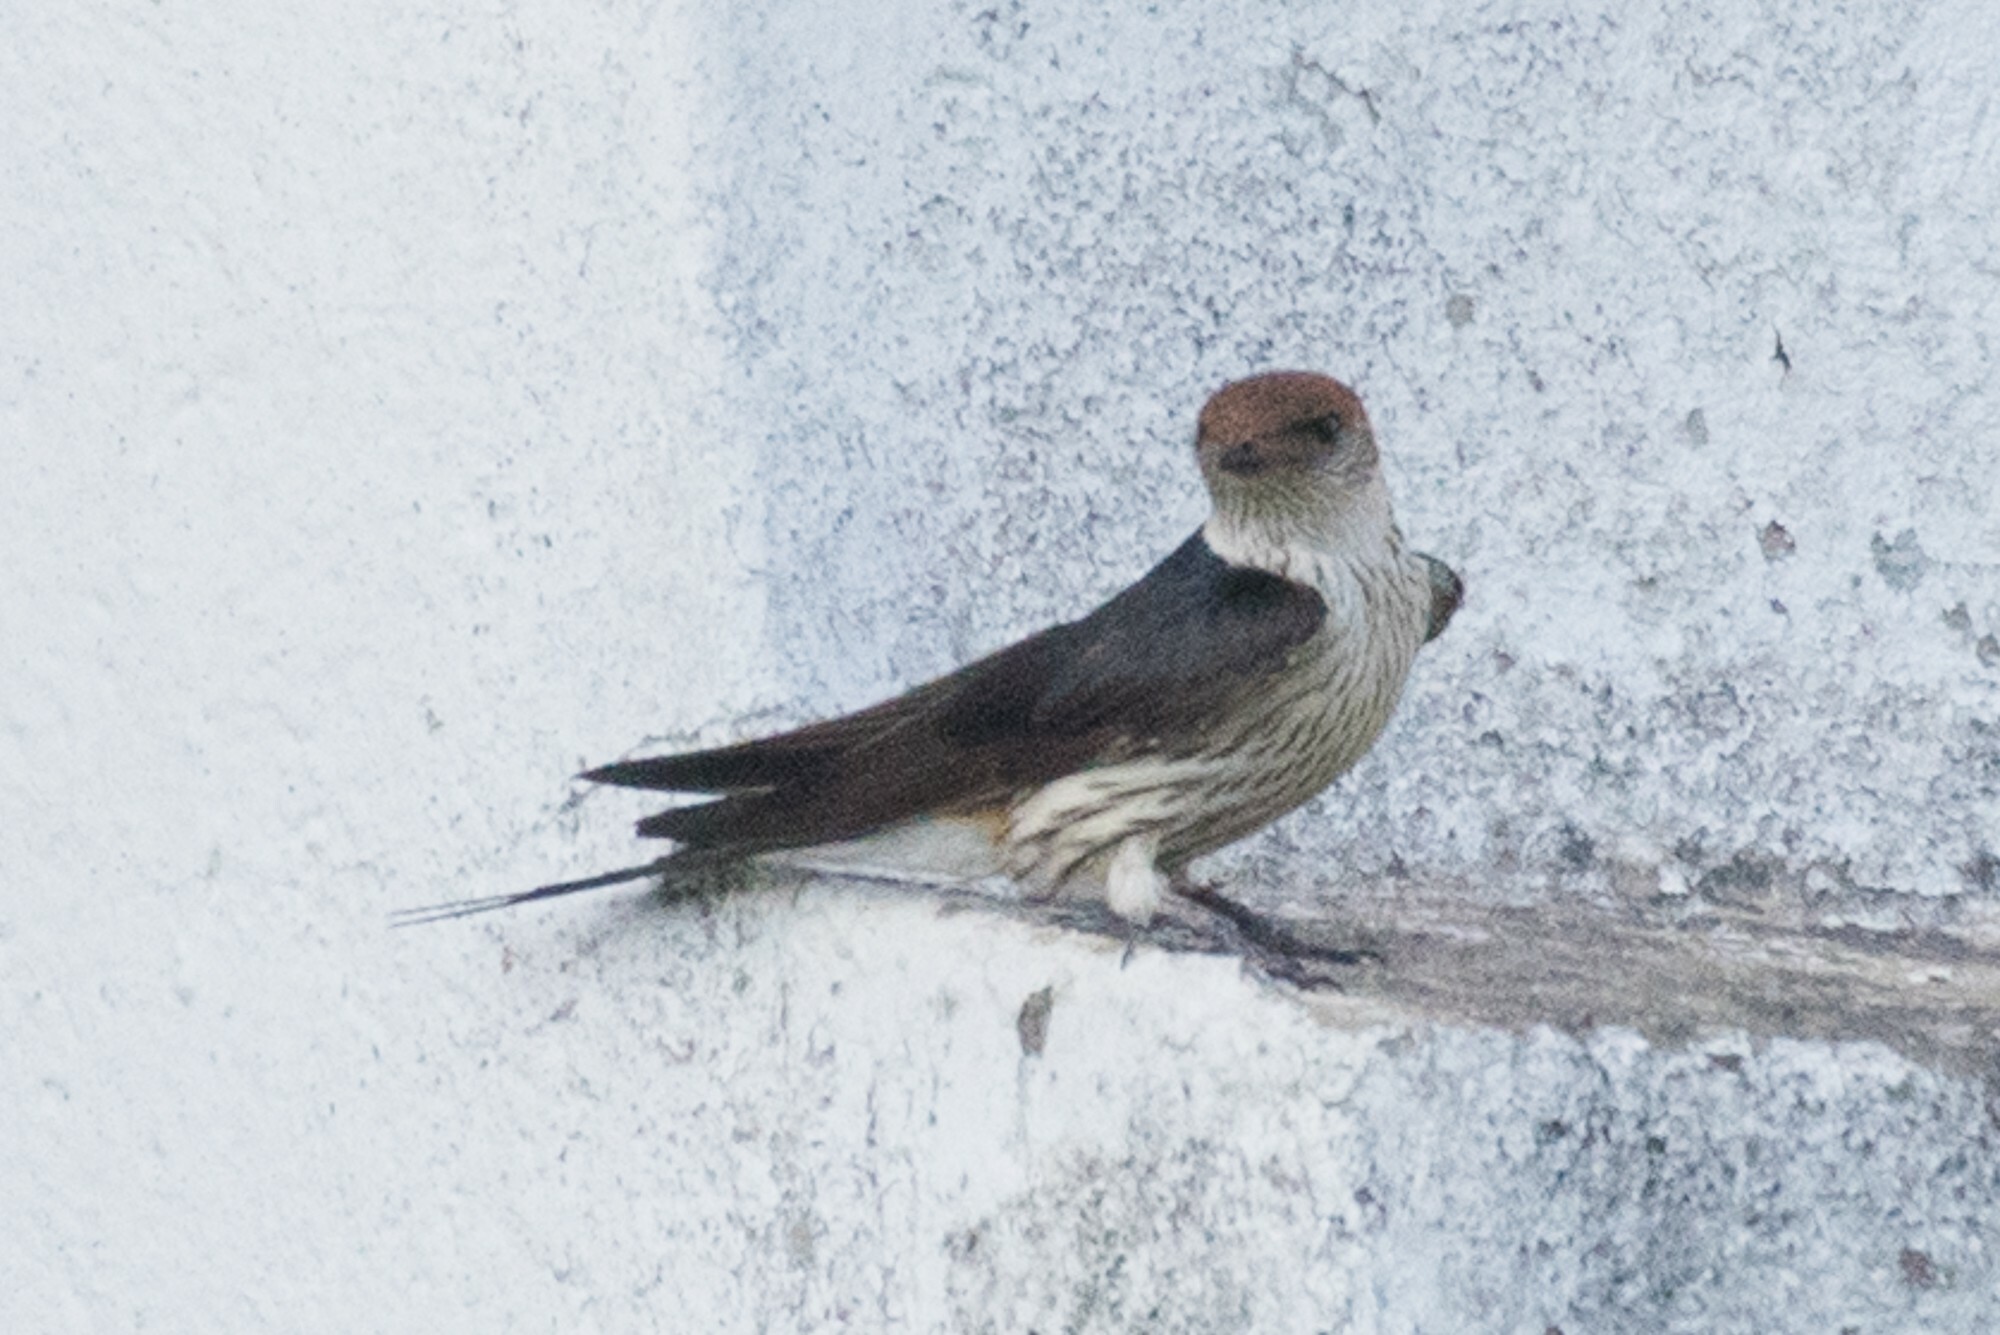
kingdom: Animalia
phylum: Chordata
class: Aves
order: Passeriformes
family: Hirundinidae
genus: Cecropis
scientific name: Cecropis cucullata
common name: Greater striped-swallow
